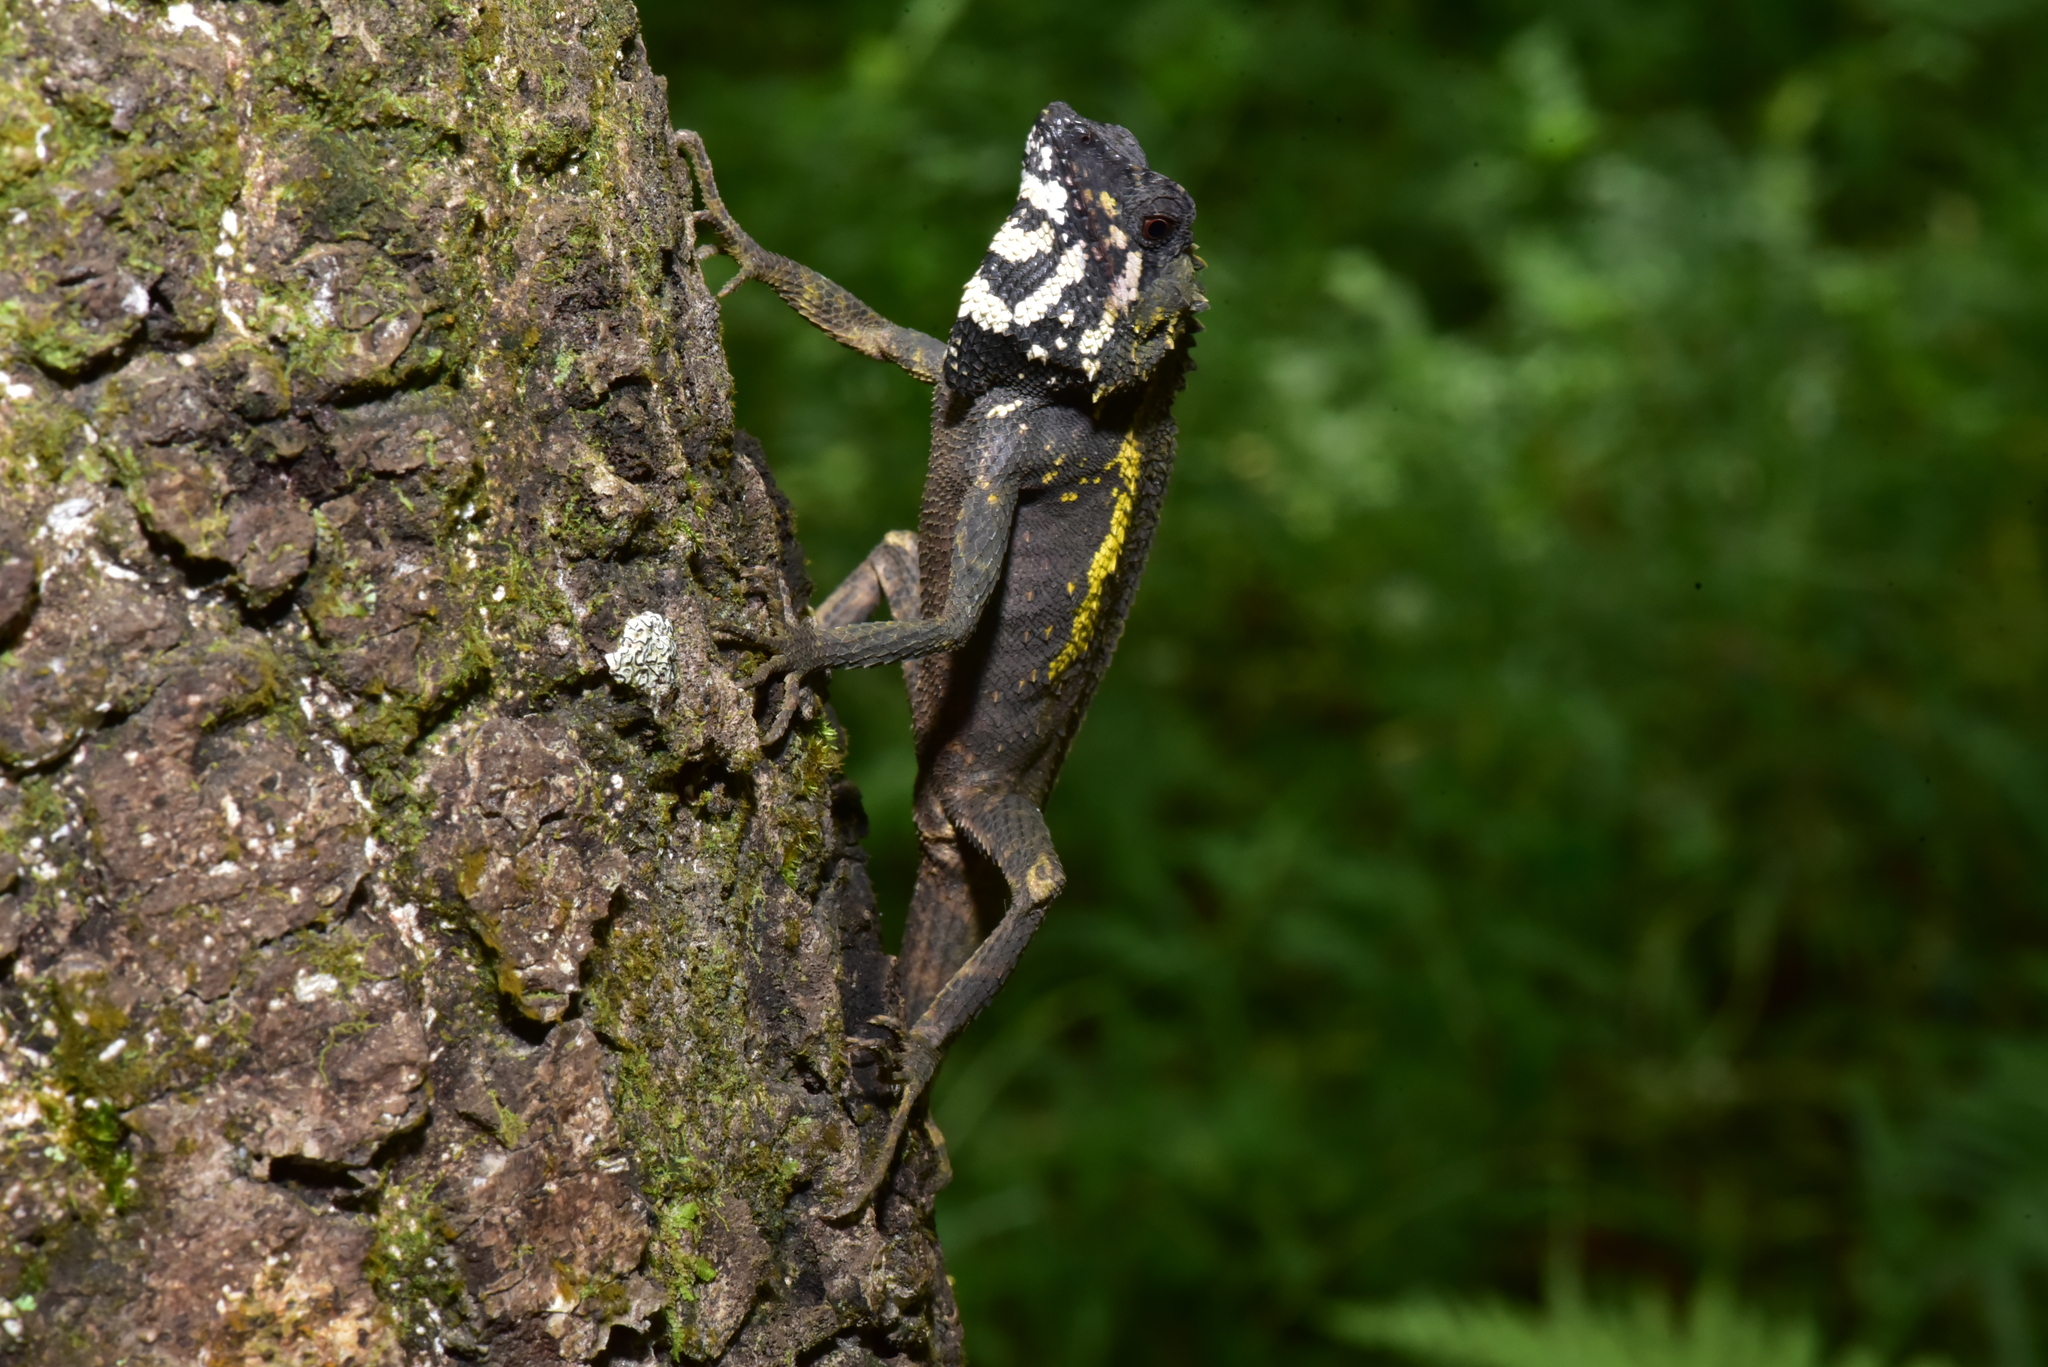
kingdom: Animalia
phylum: Chordata
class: Squamata
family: Agamidae
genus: Diploderma
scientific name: Diploderma swinhonis
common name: Taiwan japalure
